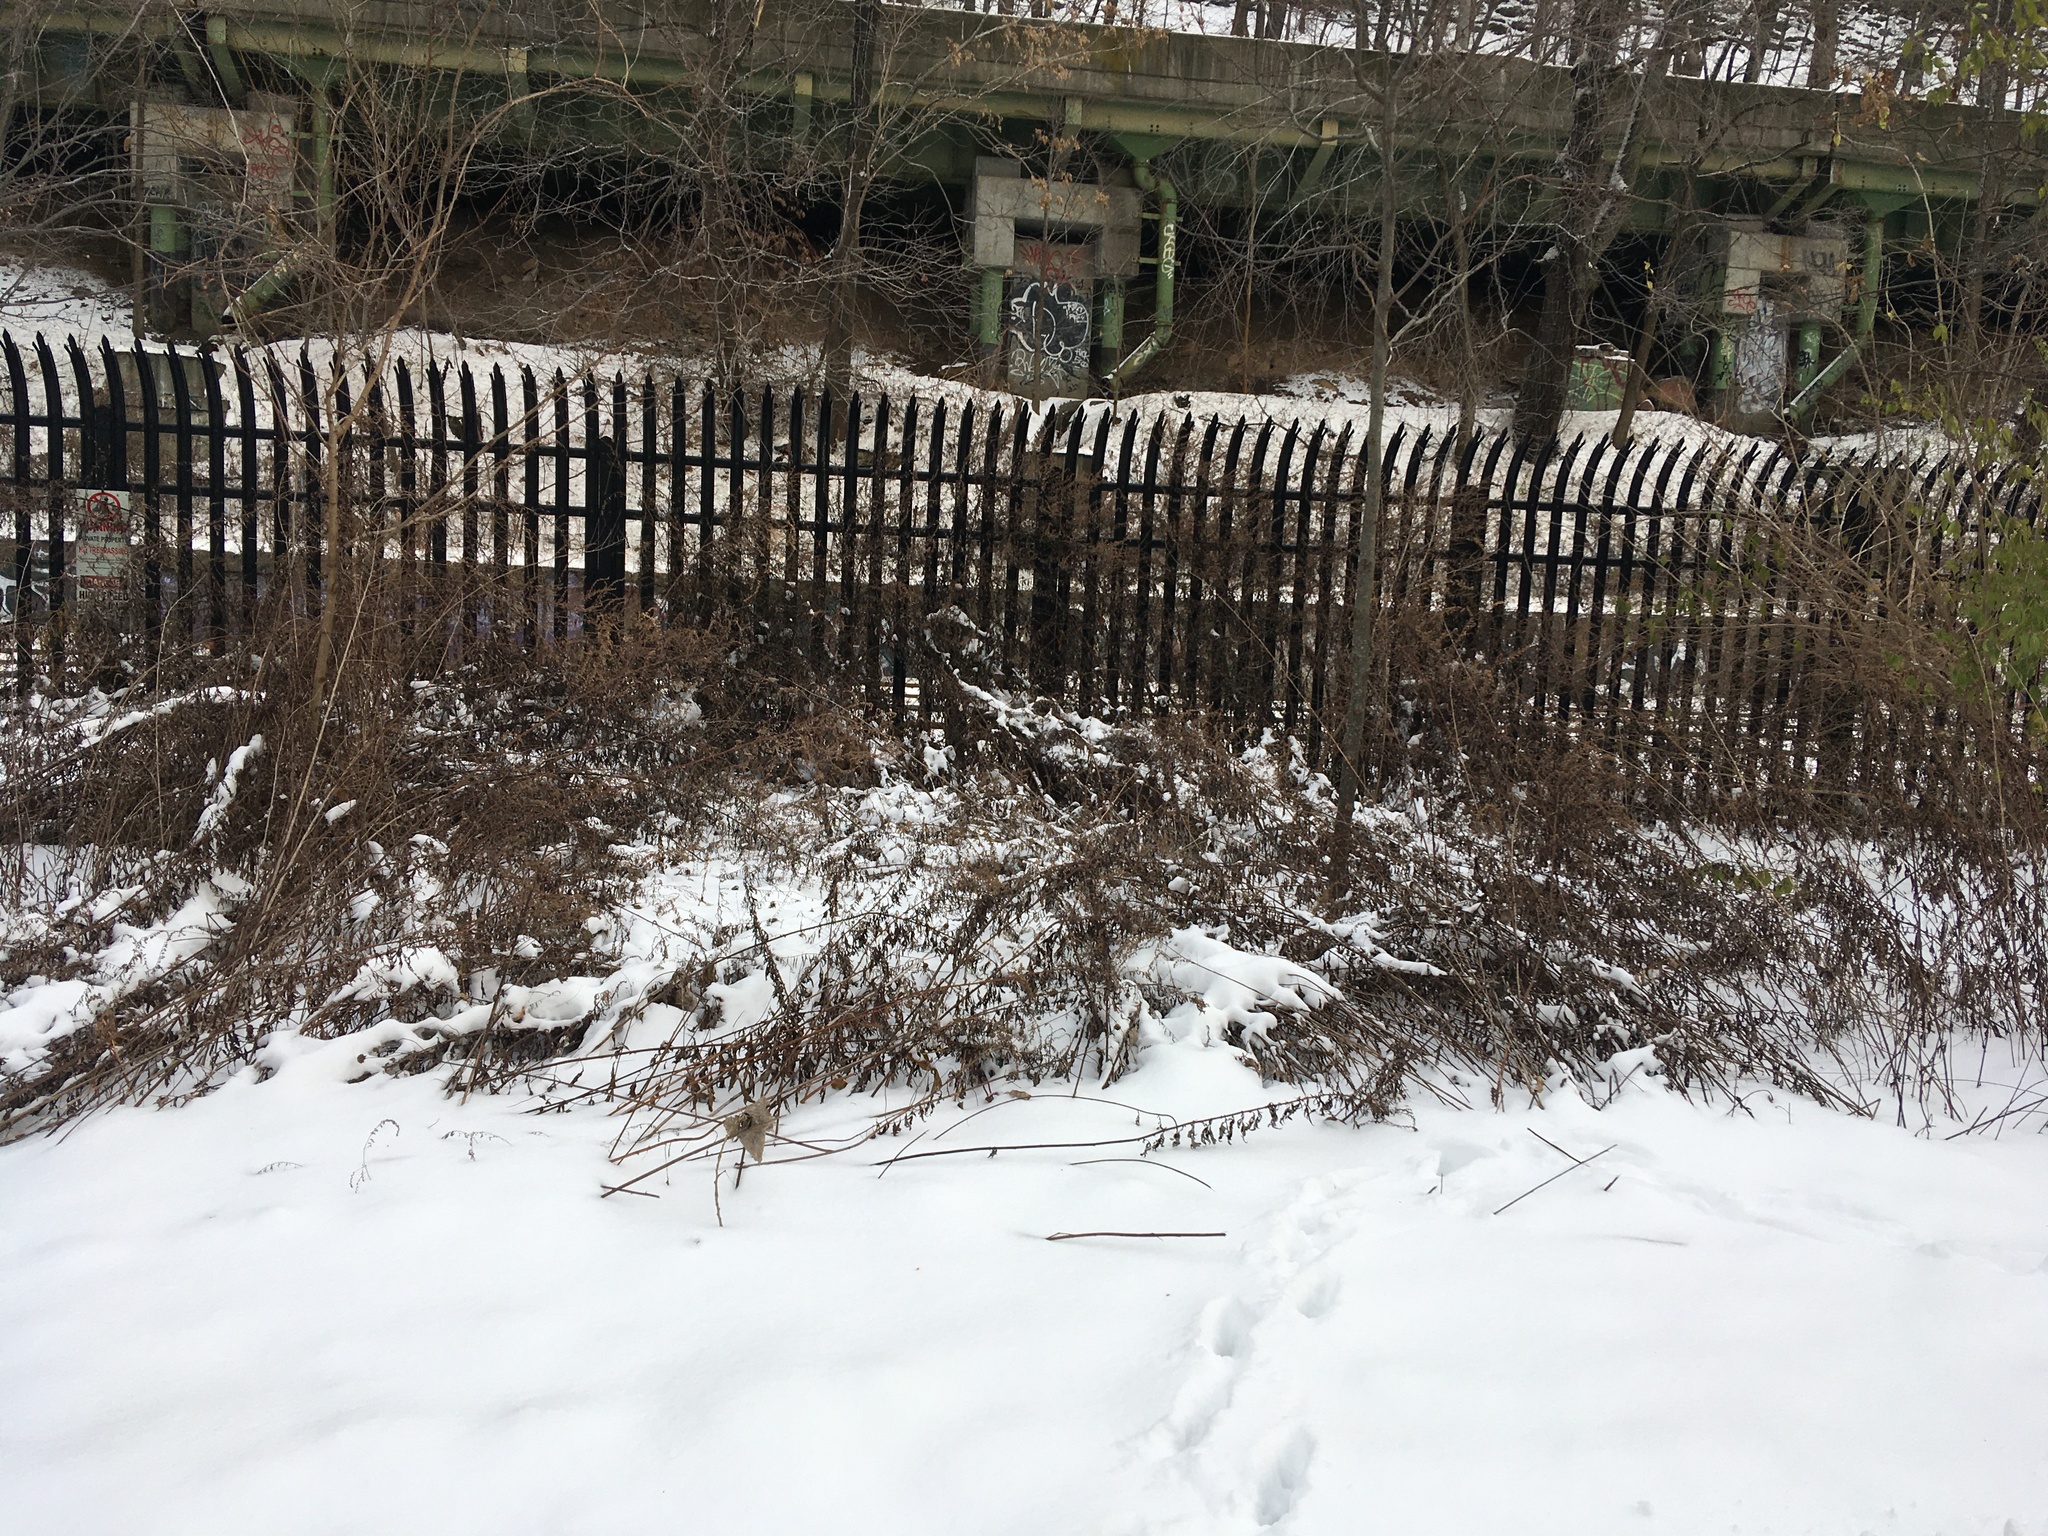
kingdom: Plantae
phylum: Tracheophyta
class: Magnoliopsida
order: Asterales
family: Asteraceae
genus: Artemisia
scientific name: Artemisia vulgaris
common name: Mugwort
